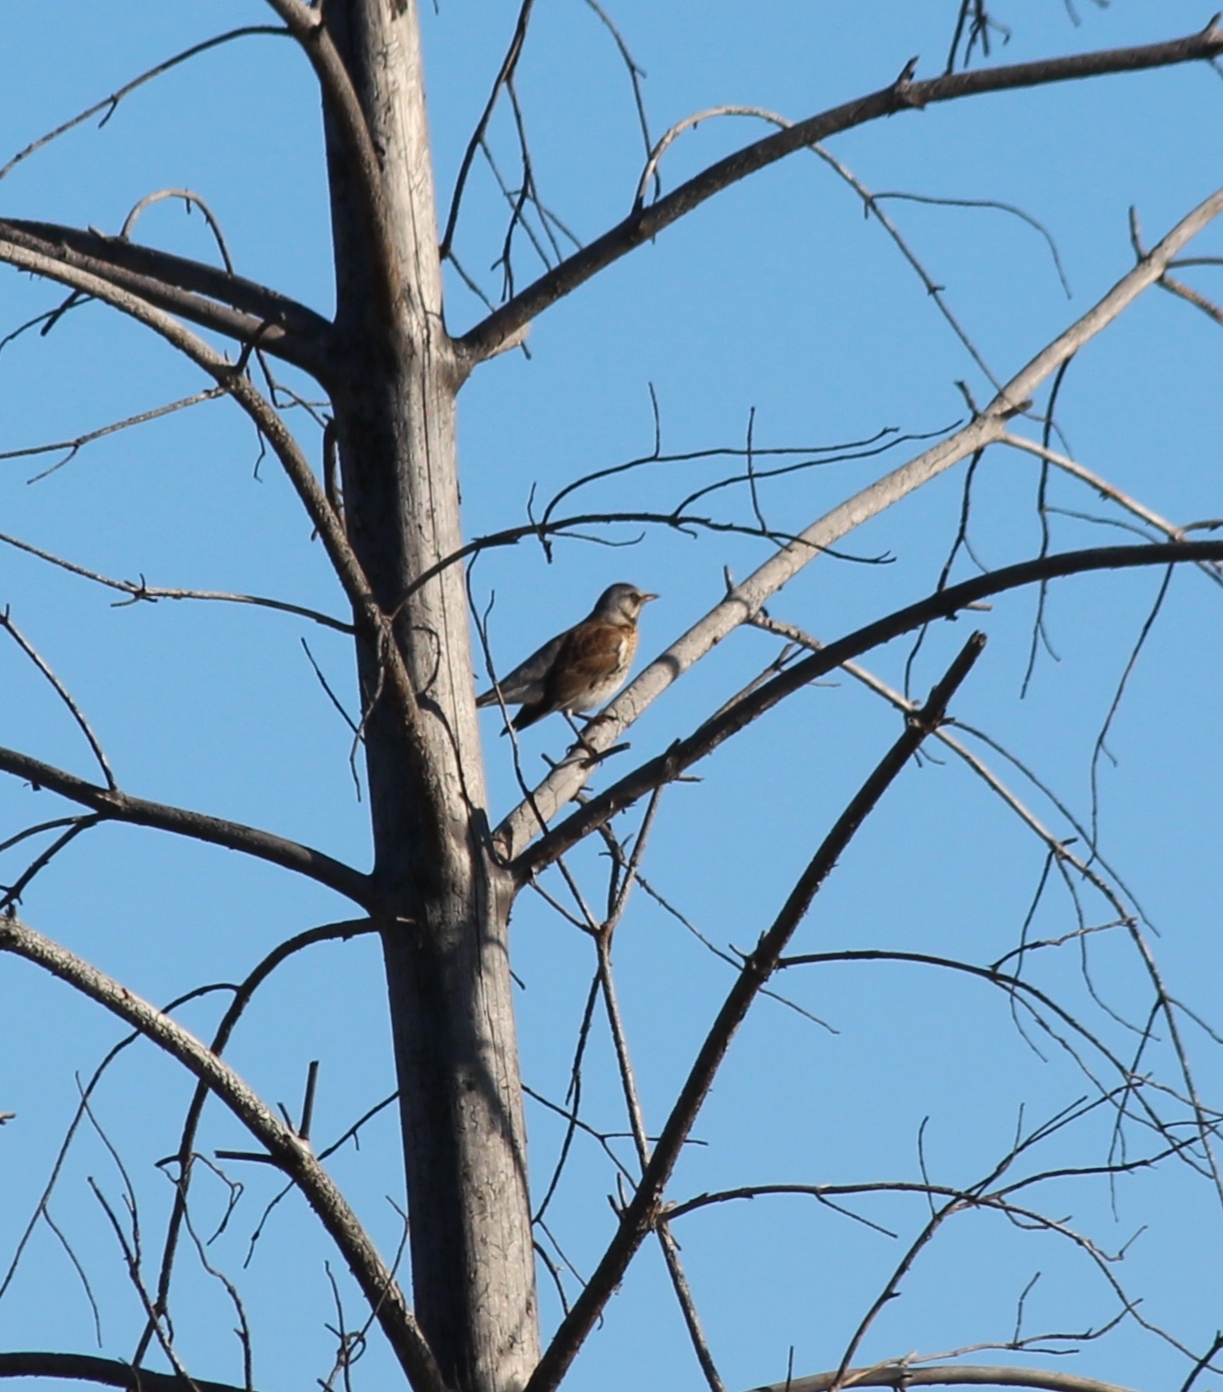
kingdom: Animalia
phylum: Chordata
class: Aves
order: Passeriformes
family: Turdidae
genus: Turdus
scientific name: Turdus pilaris
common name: Fieldfare
